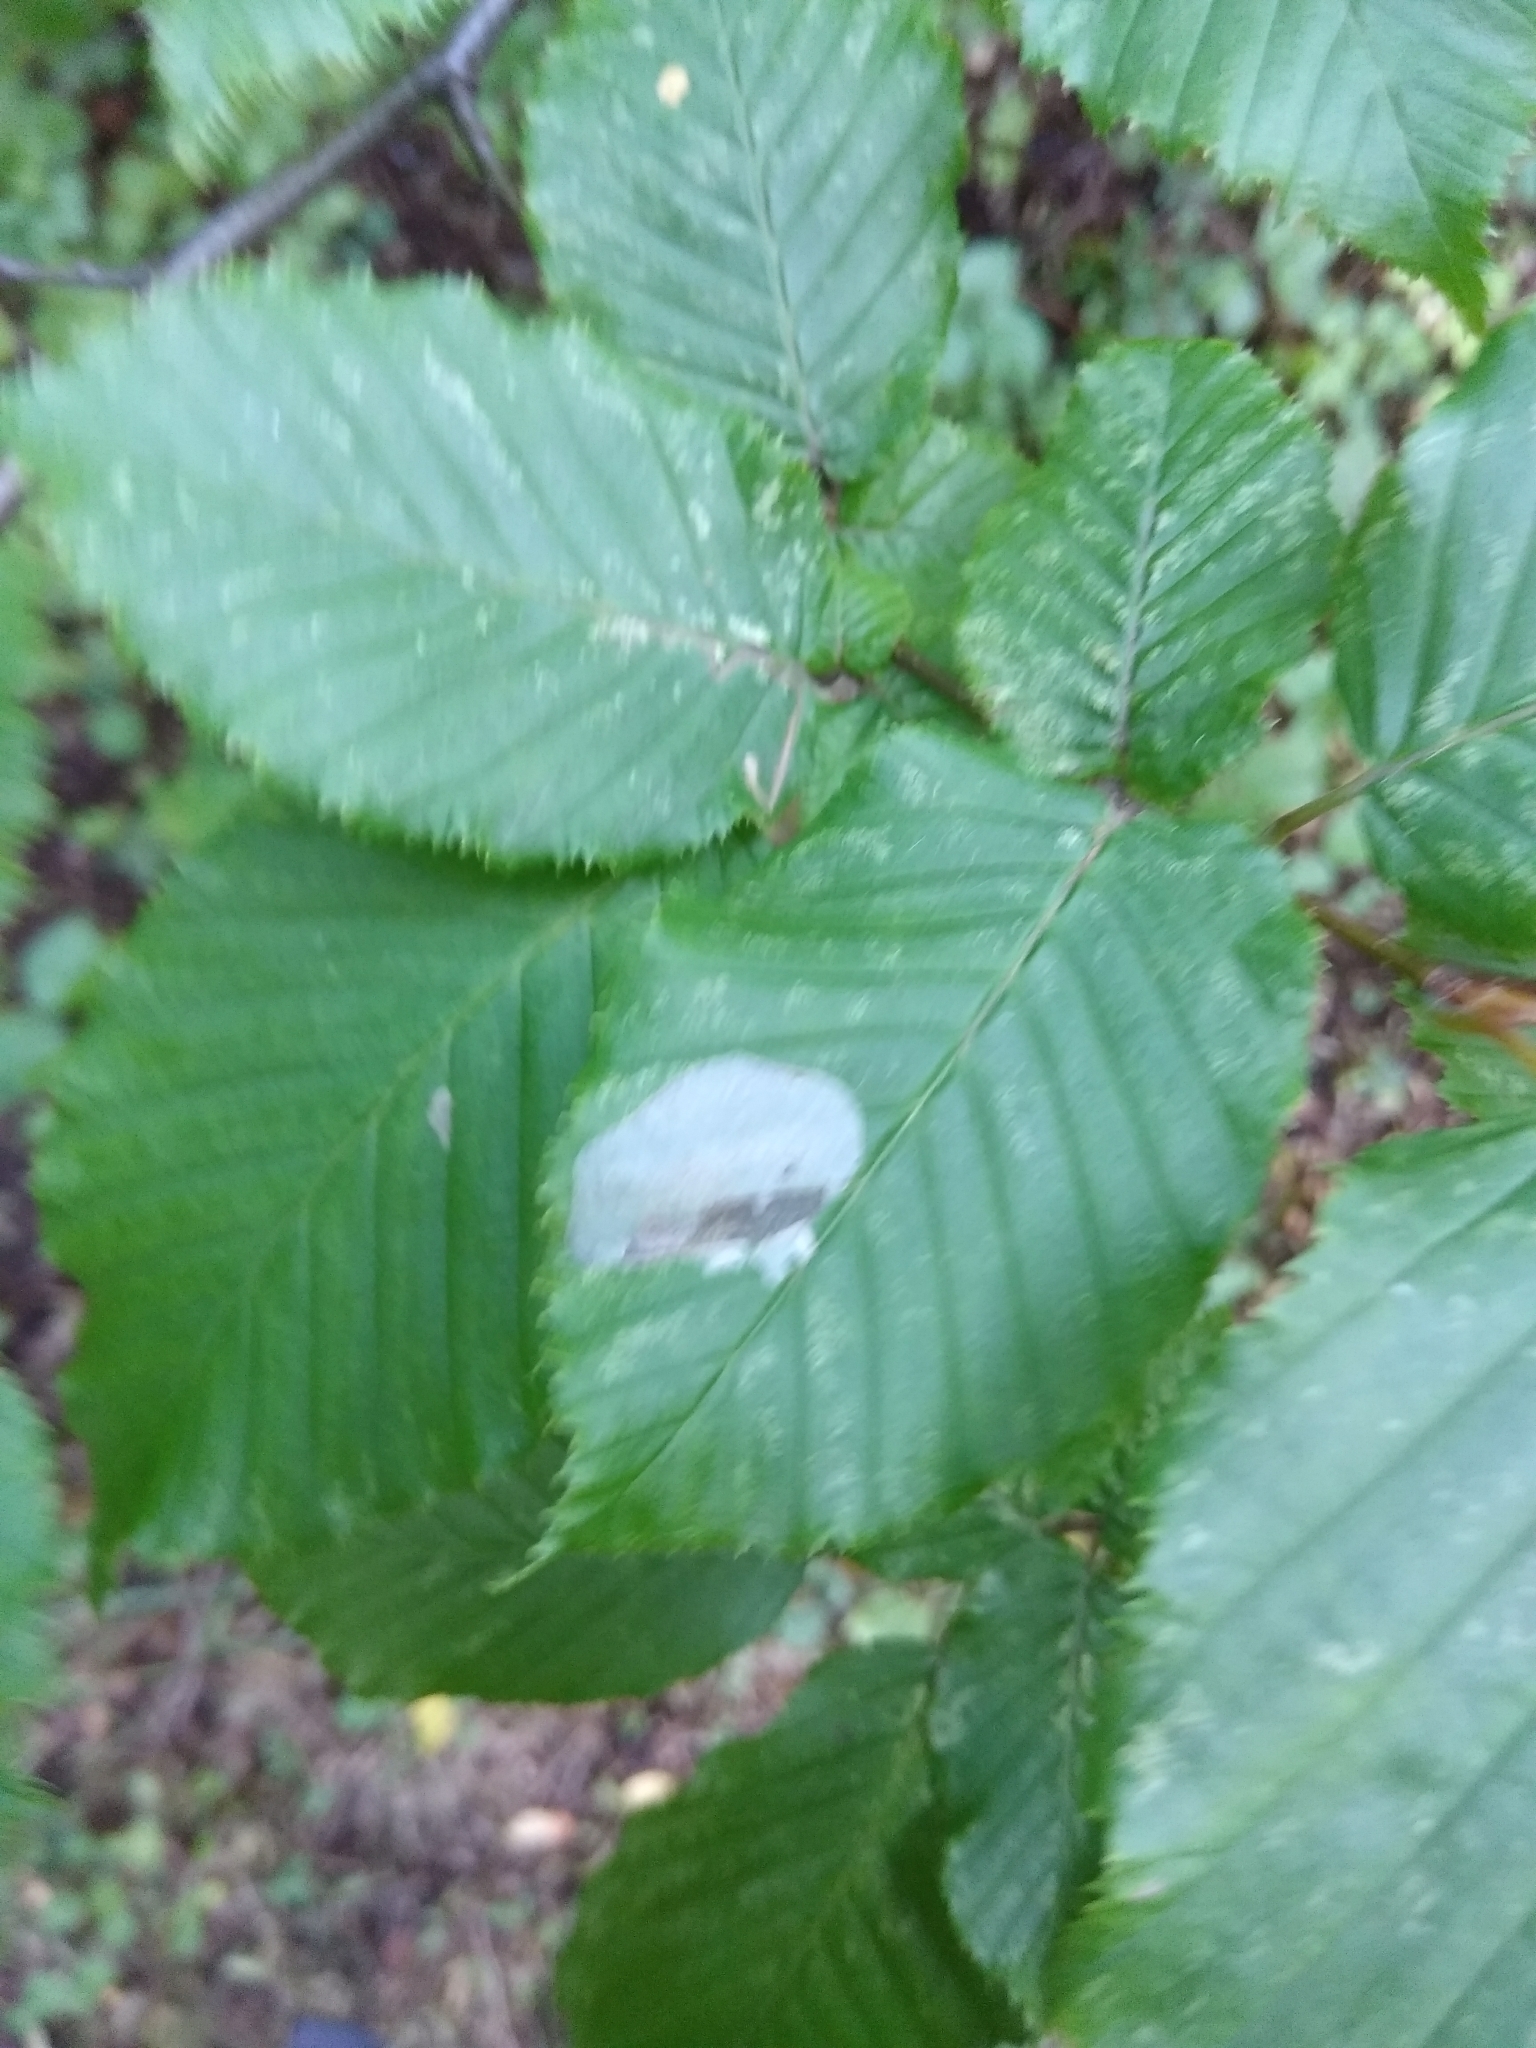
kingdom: Animalia
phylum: Arthropoda
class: Insecta
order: Lepidoptera
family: Gracillariidae
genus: Phyllonorycter
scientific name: Phyllonorycter esperella
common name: Dark hornbeam midget
